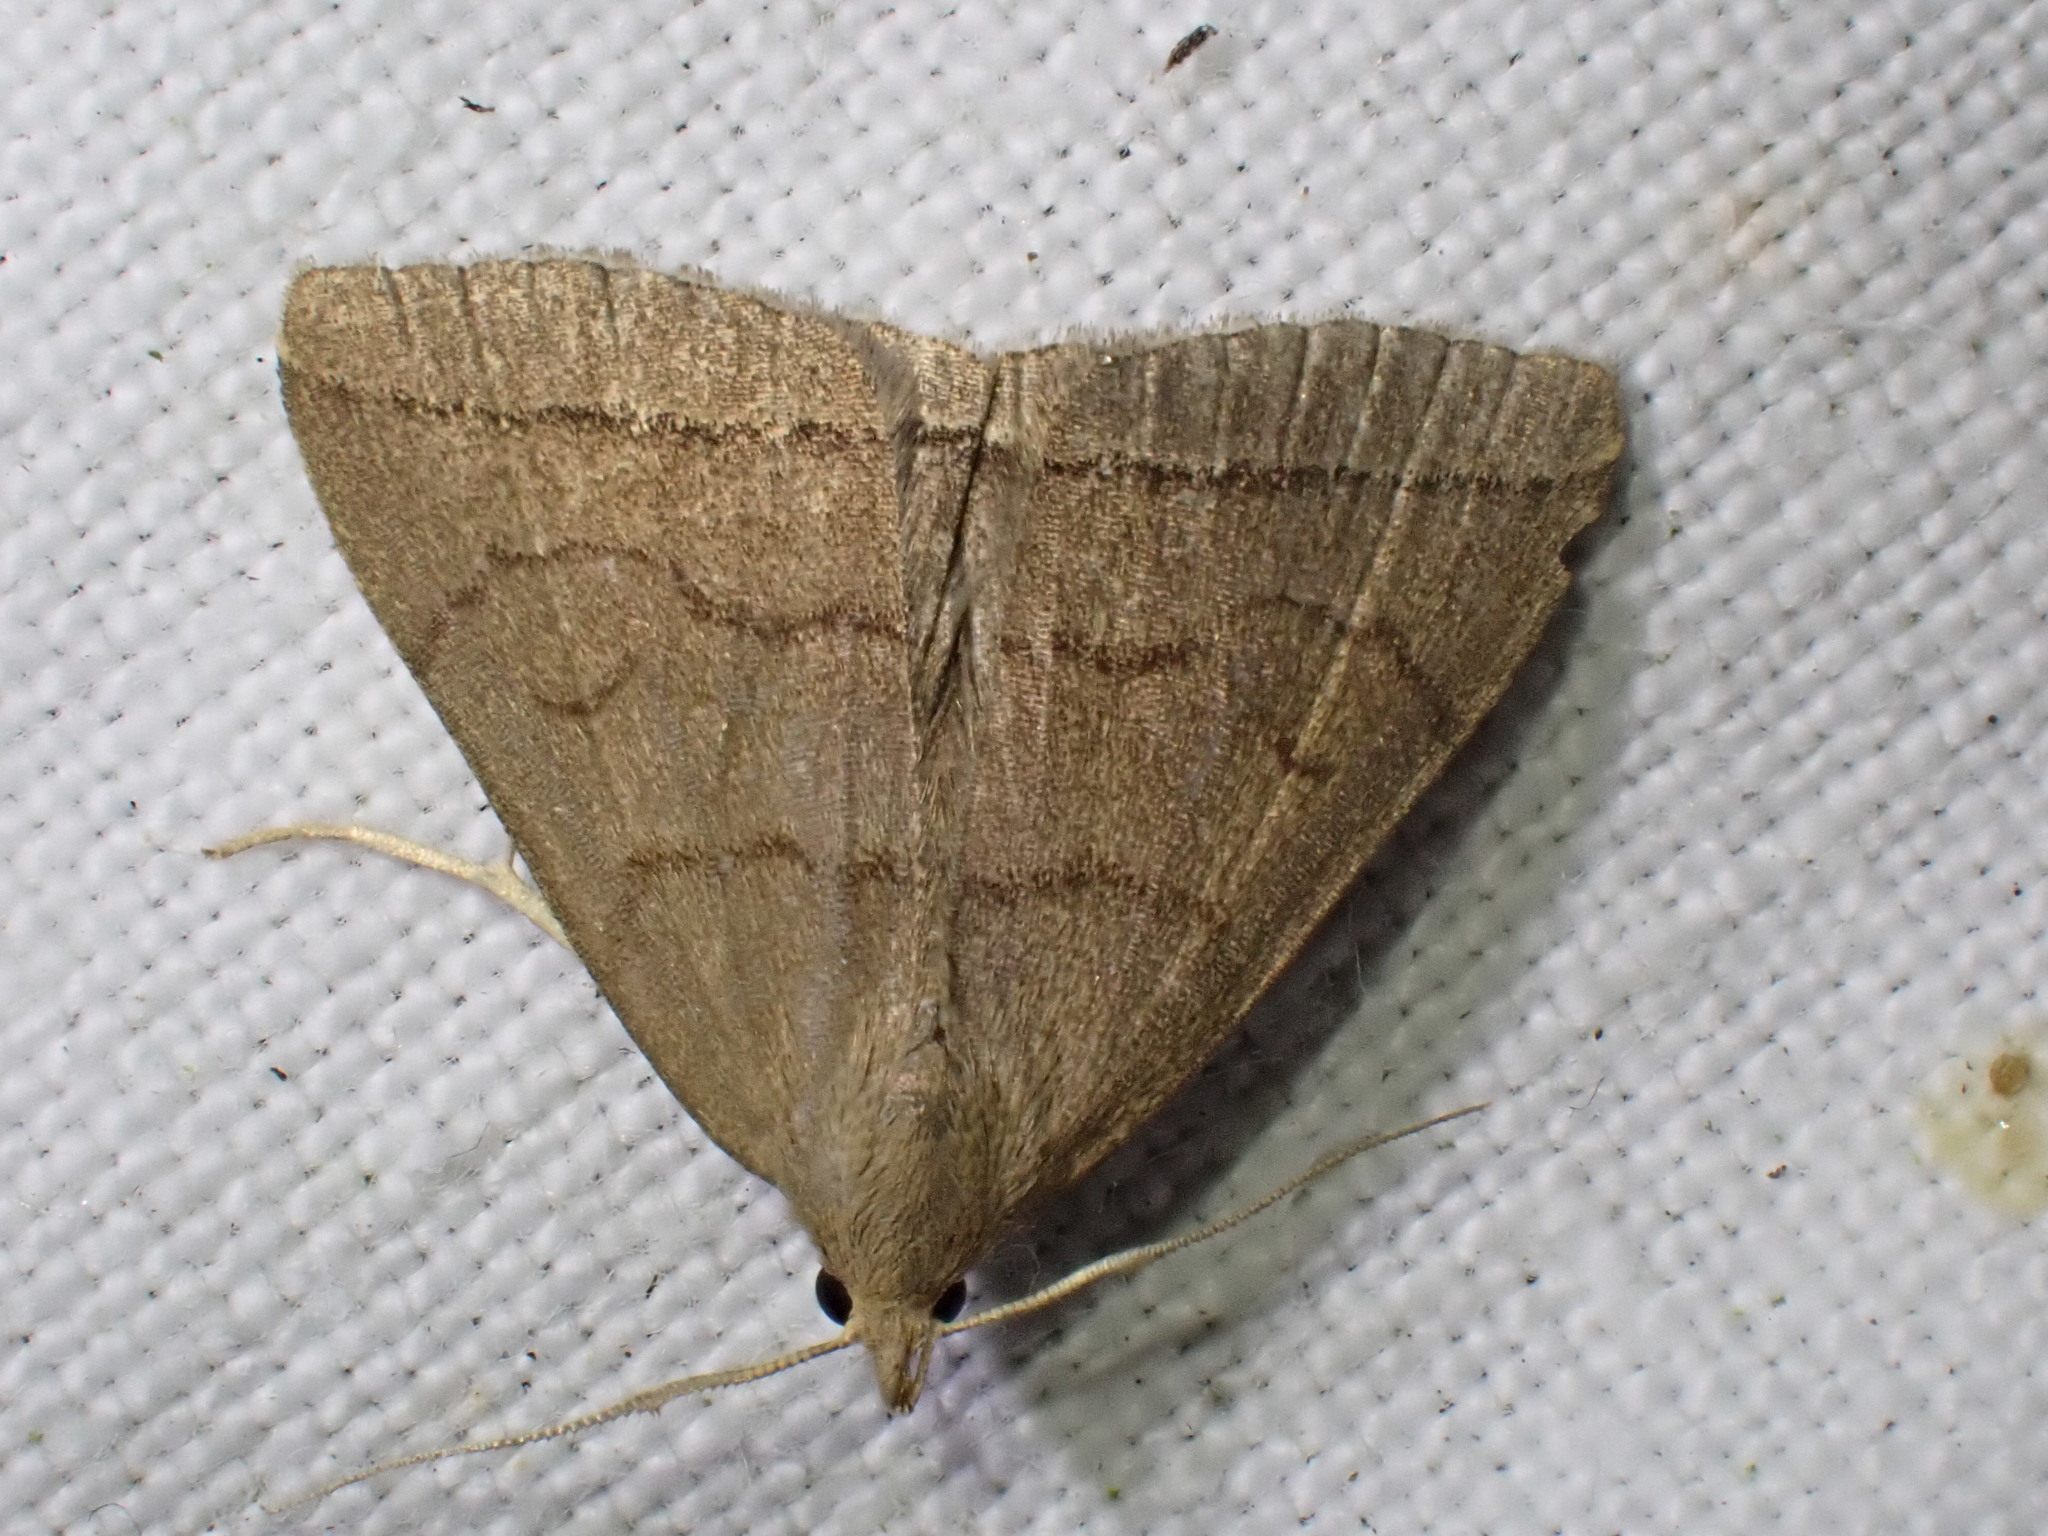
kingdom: Animalia
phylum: Arthropoda
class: Insecta
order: Lepidoptera
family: Erebidae
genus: Herminia
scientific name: Herminia tarsipennalis
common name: Fan-foot
